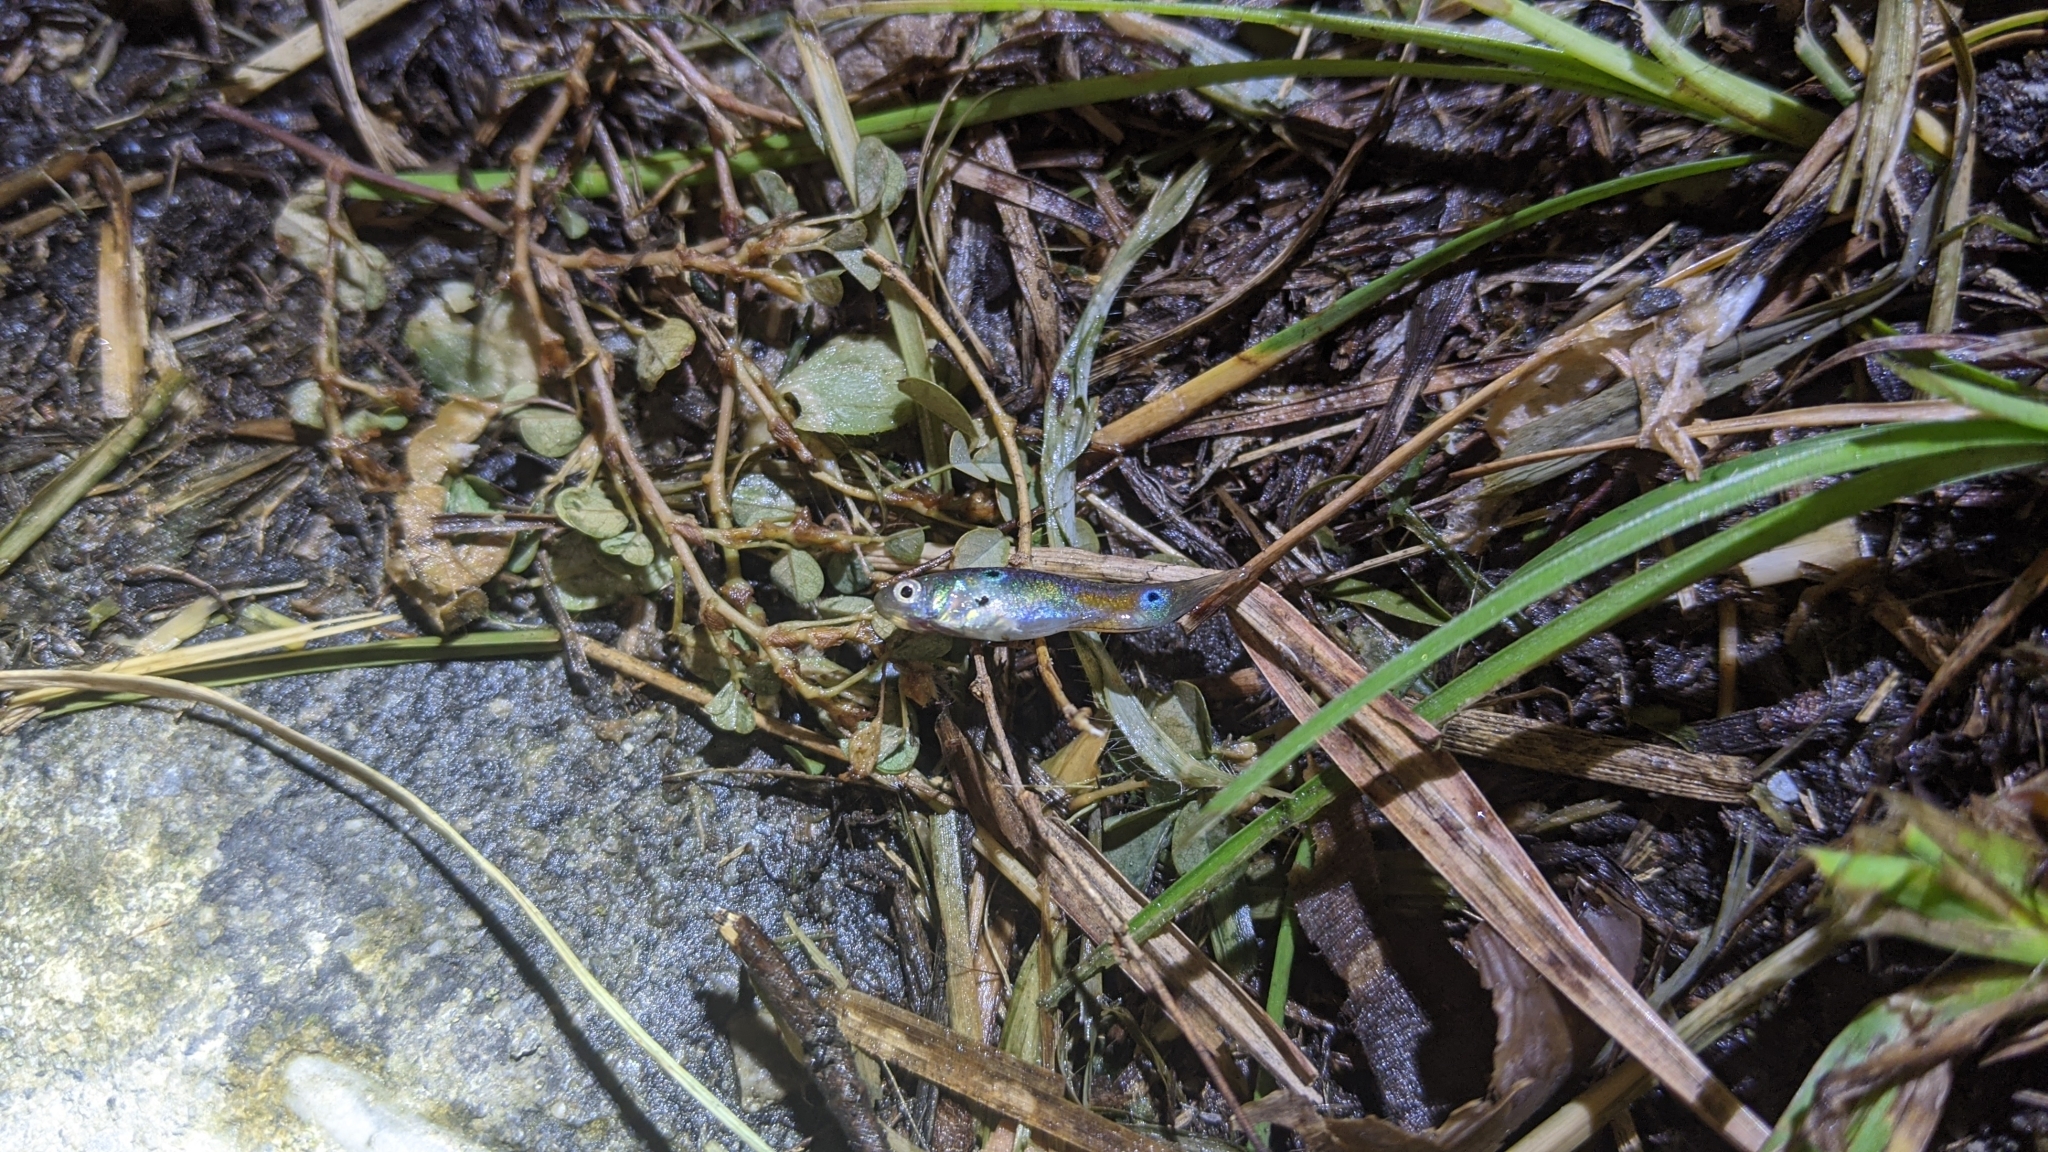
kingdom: Animalia
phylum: Chordata
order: Cyprinodontiformes
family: Poeciliidae
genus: Poecilia
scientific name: Poecilia reticulata
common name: Guppy
